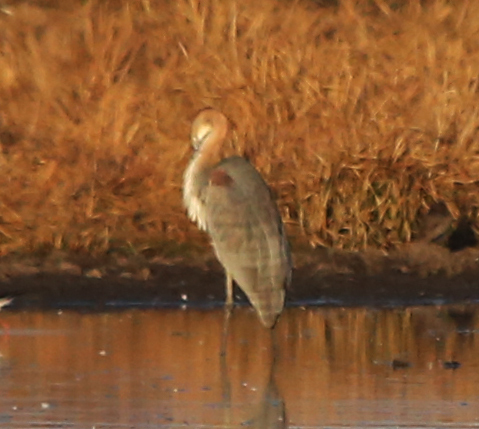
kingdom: Animalia
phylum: Chordata
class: Aves
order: Pelecaniformes
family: Ardeidae
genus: Ardea
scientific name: Ardea goliath
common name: Goliath heron
